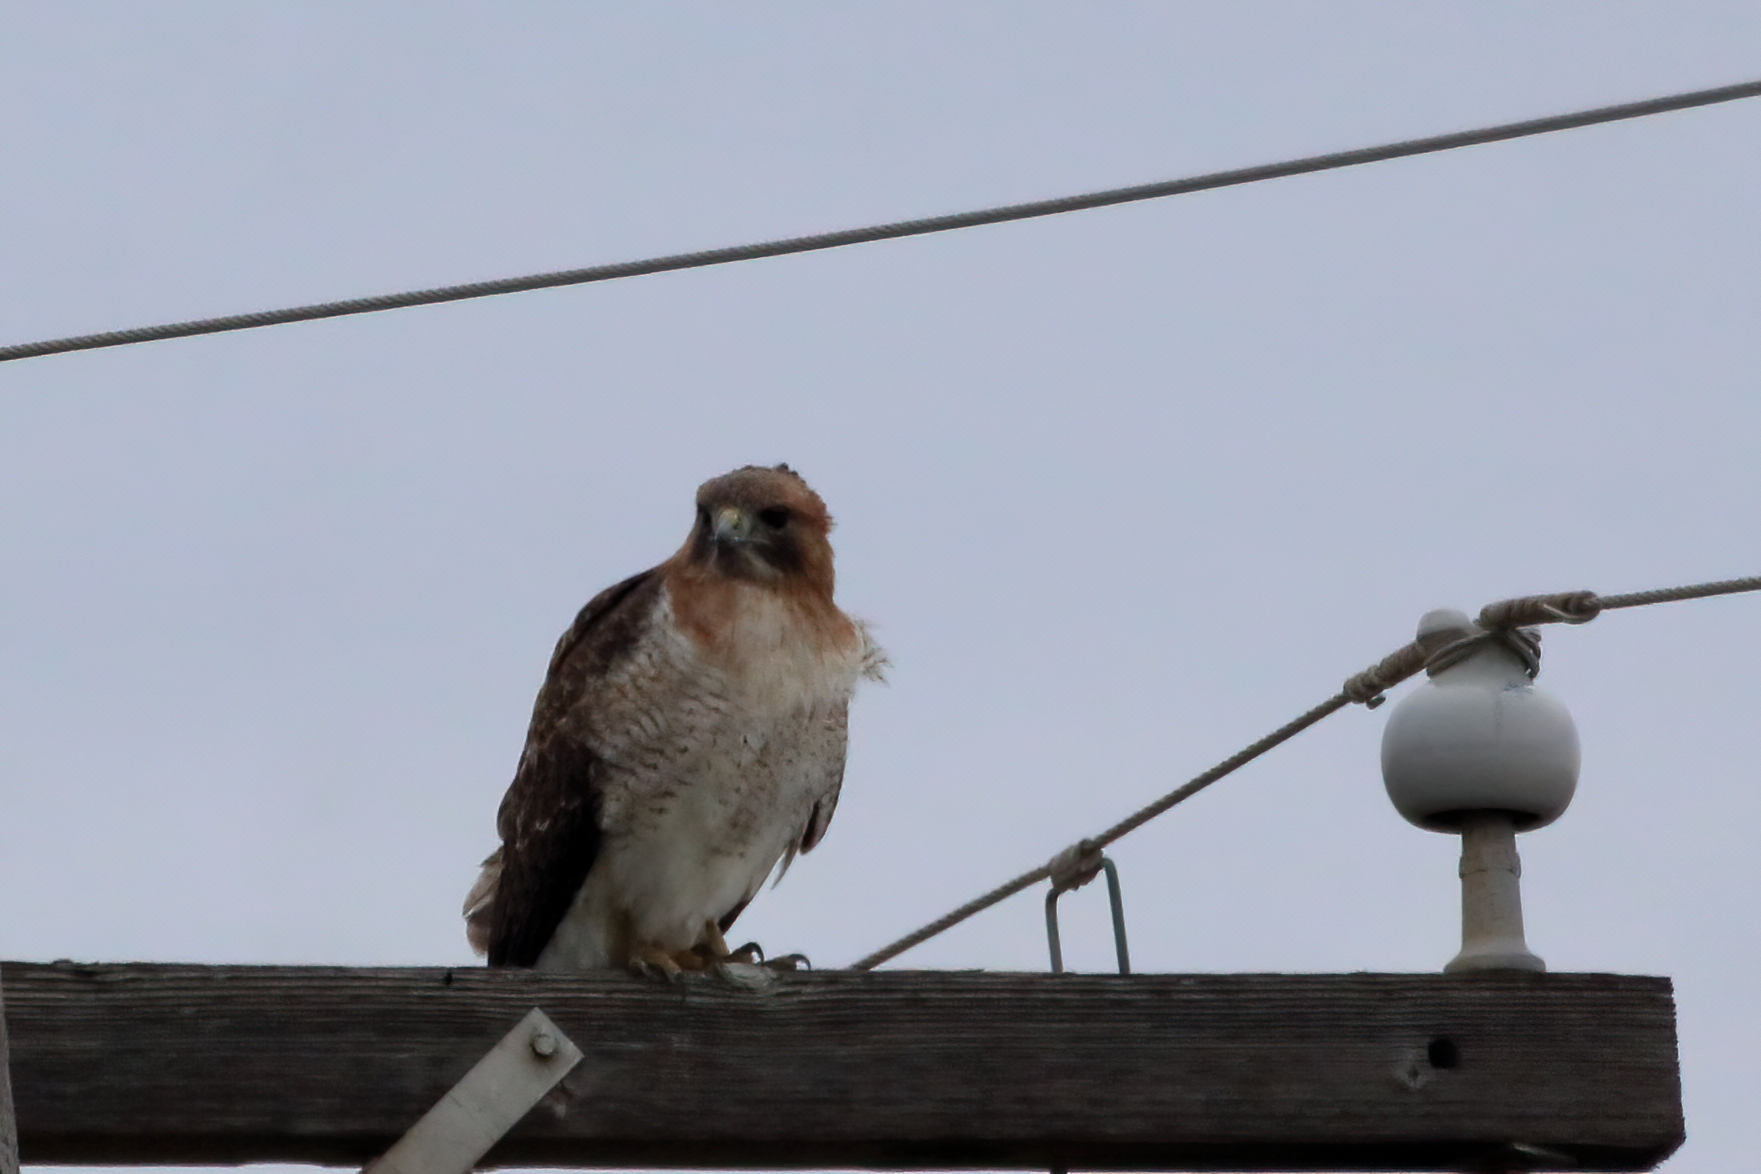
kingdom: Animalia
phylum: Chordata
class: Aves
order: Accipitriformes
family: Accipitridae
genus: Buteo
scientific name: Buteo jamaicensis
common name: Red-tailed hawk
